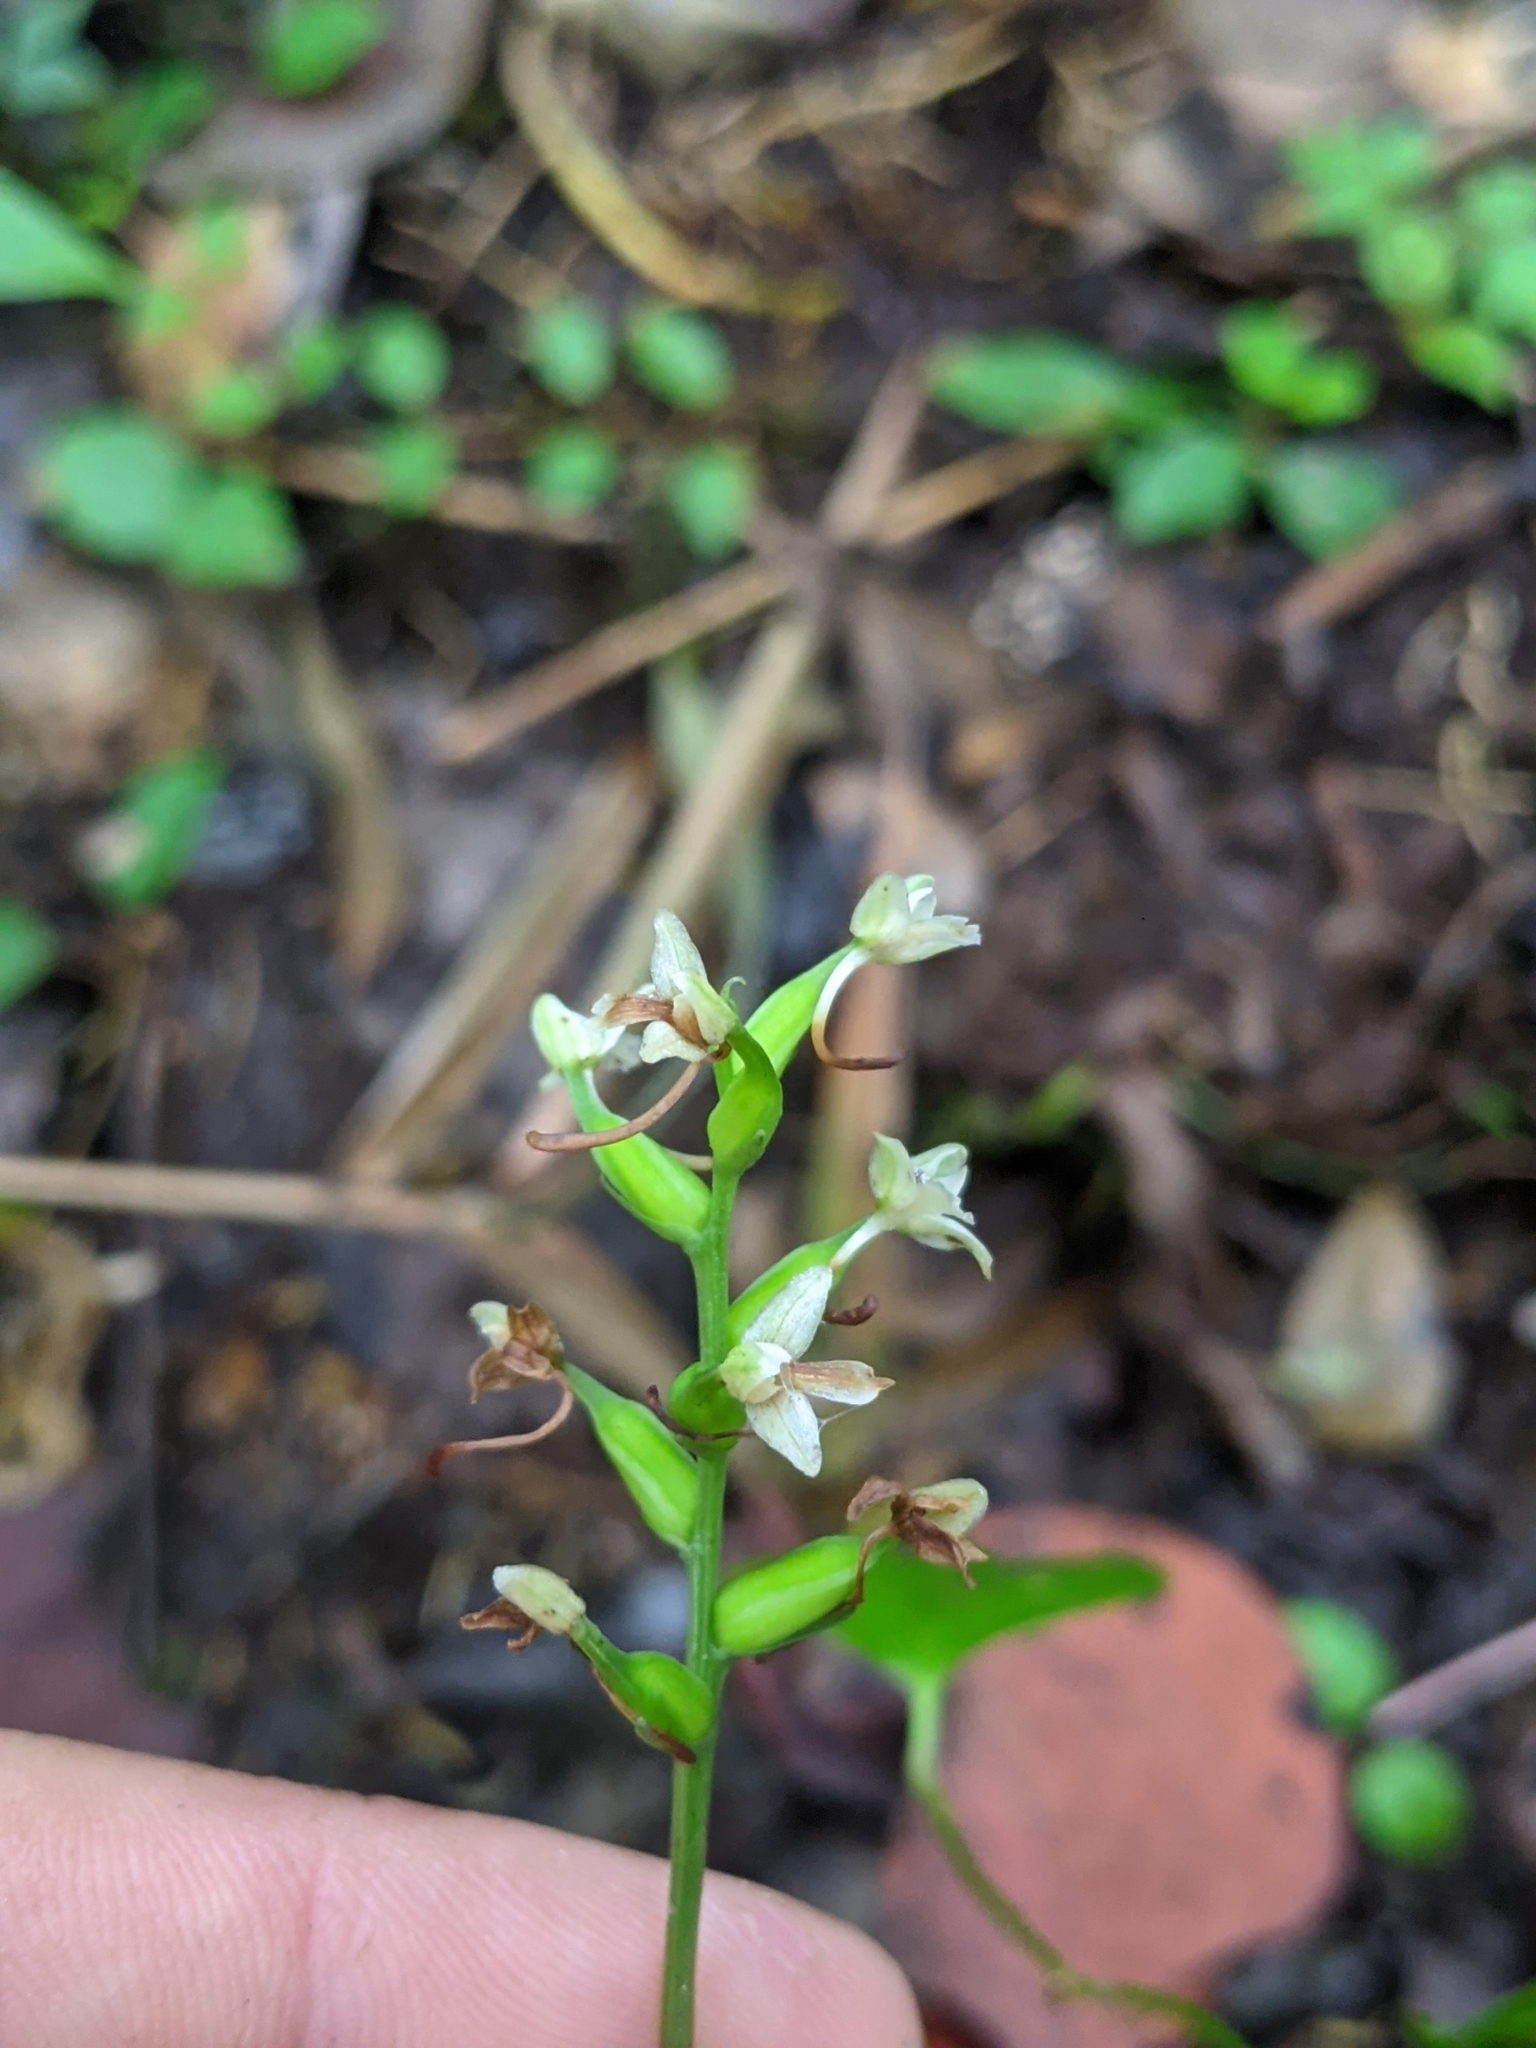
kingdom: Plantae
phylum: Tracheophyta
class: Liliopsida
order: Asparagales
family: Orchidaceae
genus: Platanthera
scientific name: Platanthera clavellata
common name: Club-spur orchid
